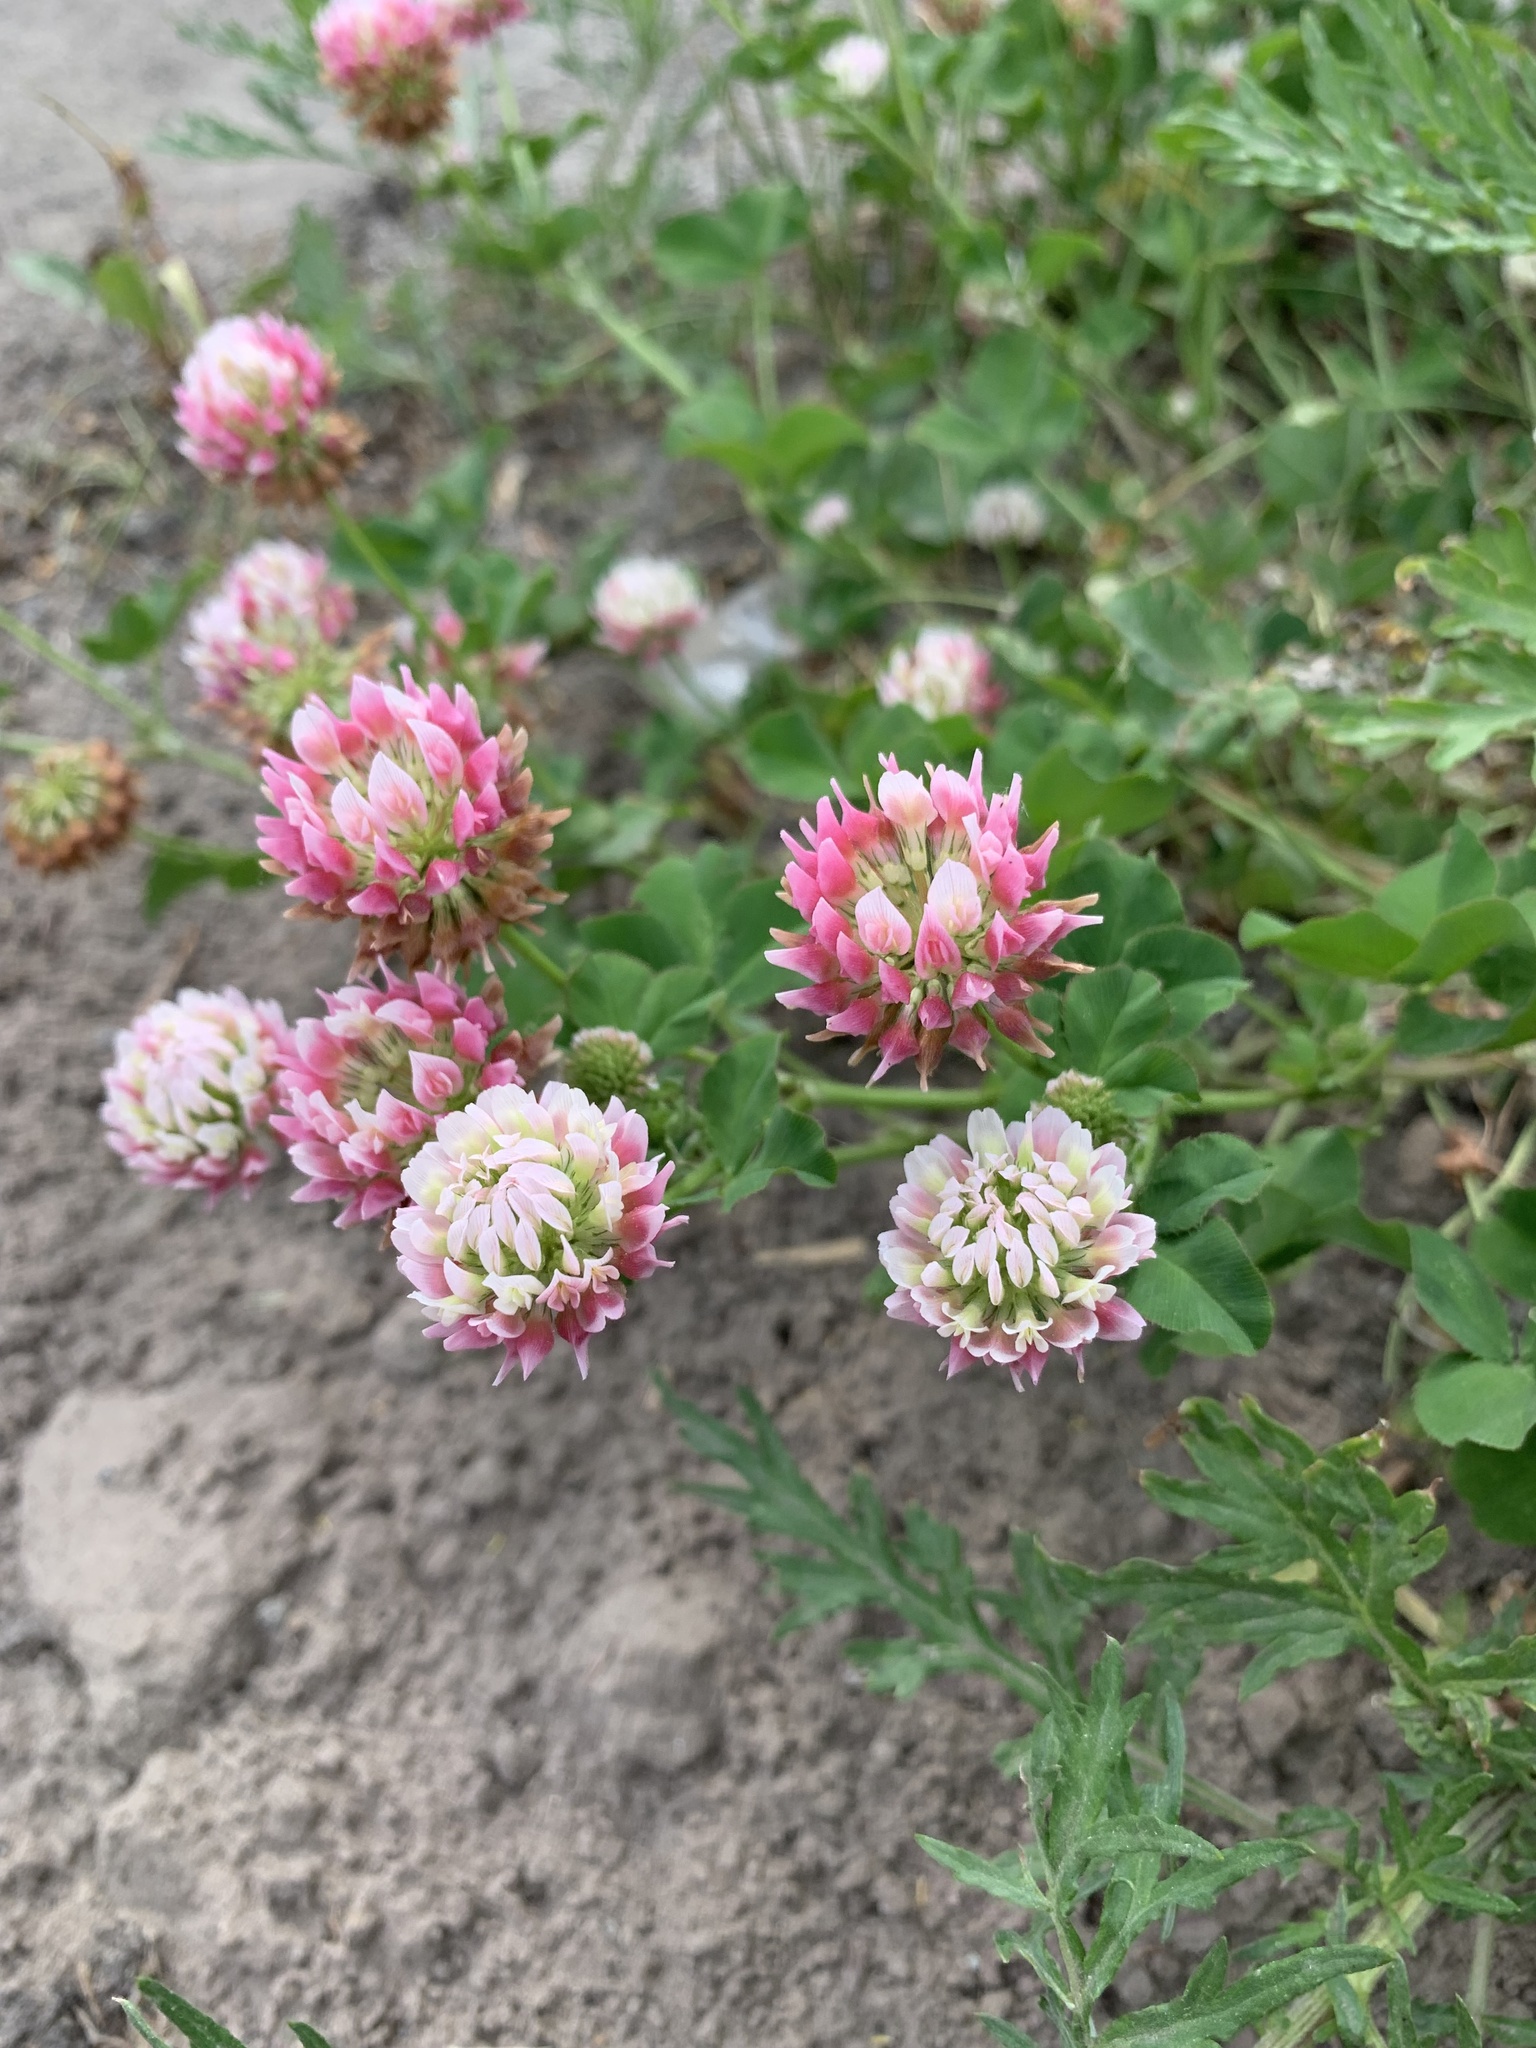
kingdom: Plantae
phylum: Tracheophyta
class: Magnoliopsida
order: Fabales
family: Fabaceae
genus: Trifolium
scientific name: Trifolium hybridum
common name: Alsike clover
